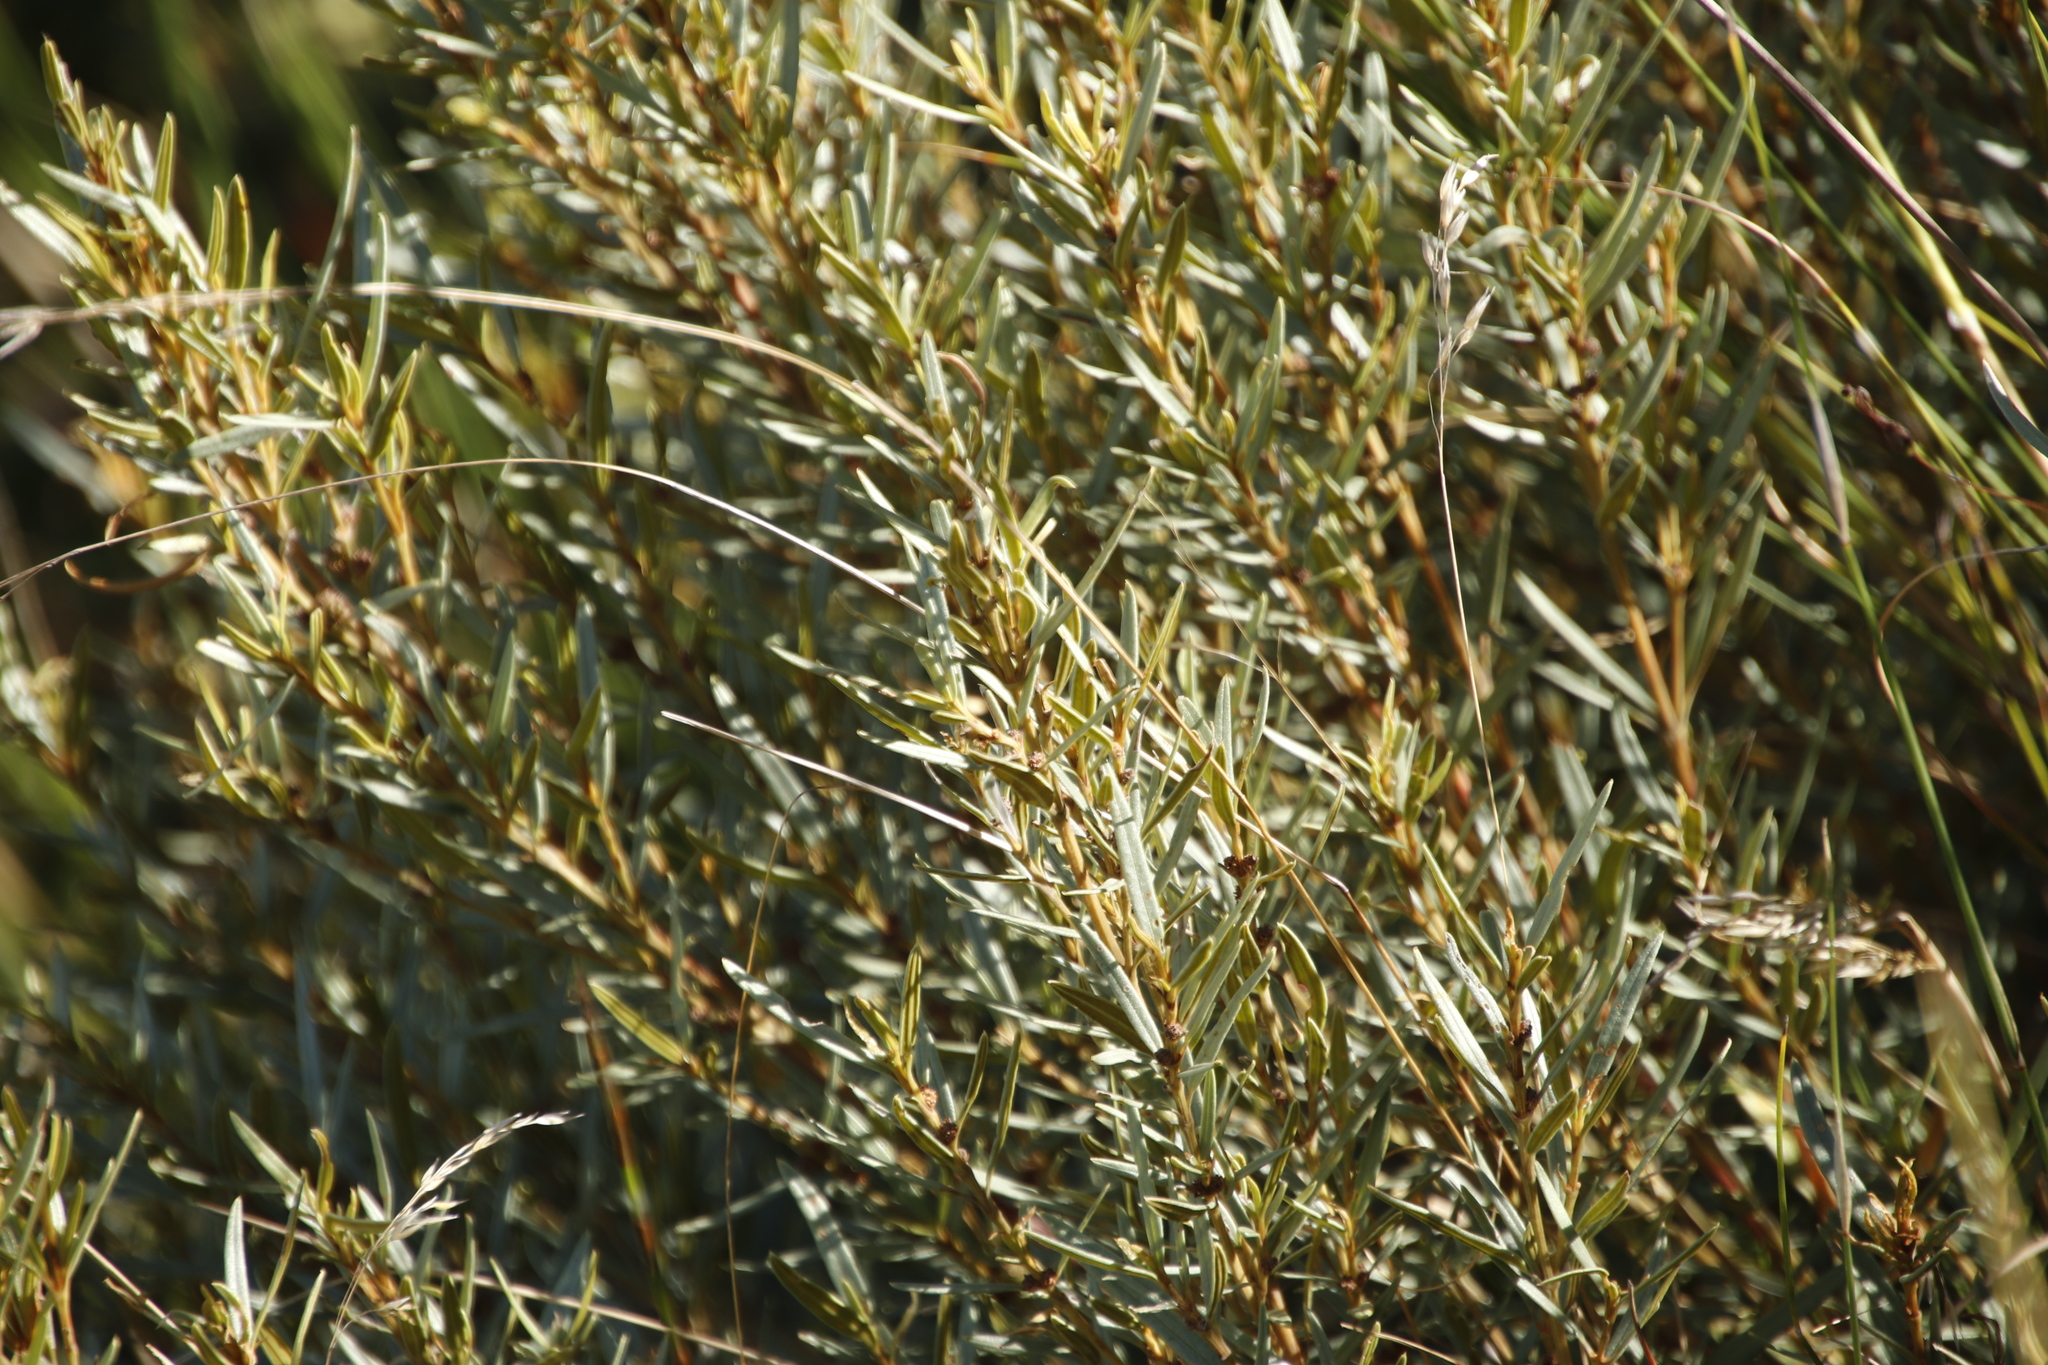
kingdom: Plantae
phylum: Tracheophyta
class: Magnoliopsida
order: Cornales
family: Grubbiaceae
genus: Grubbia
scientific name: Grubbia tomentosa
